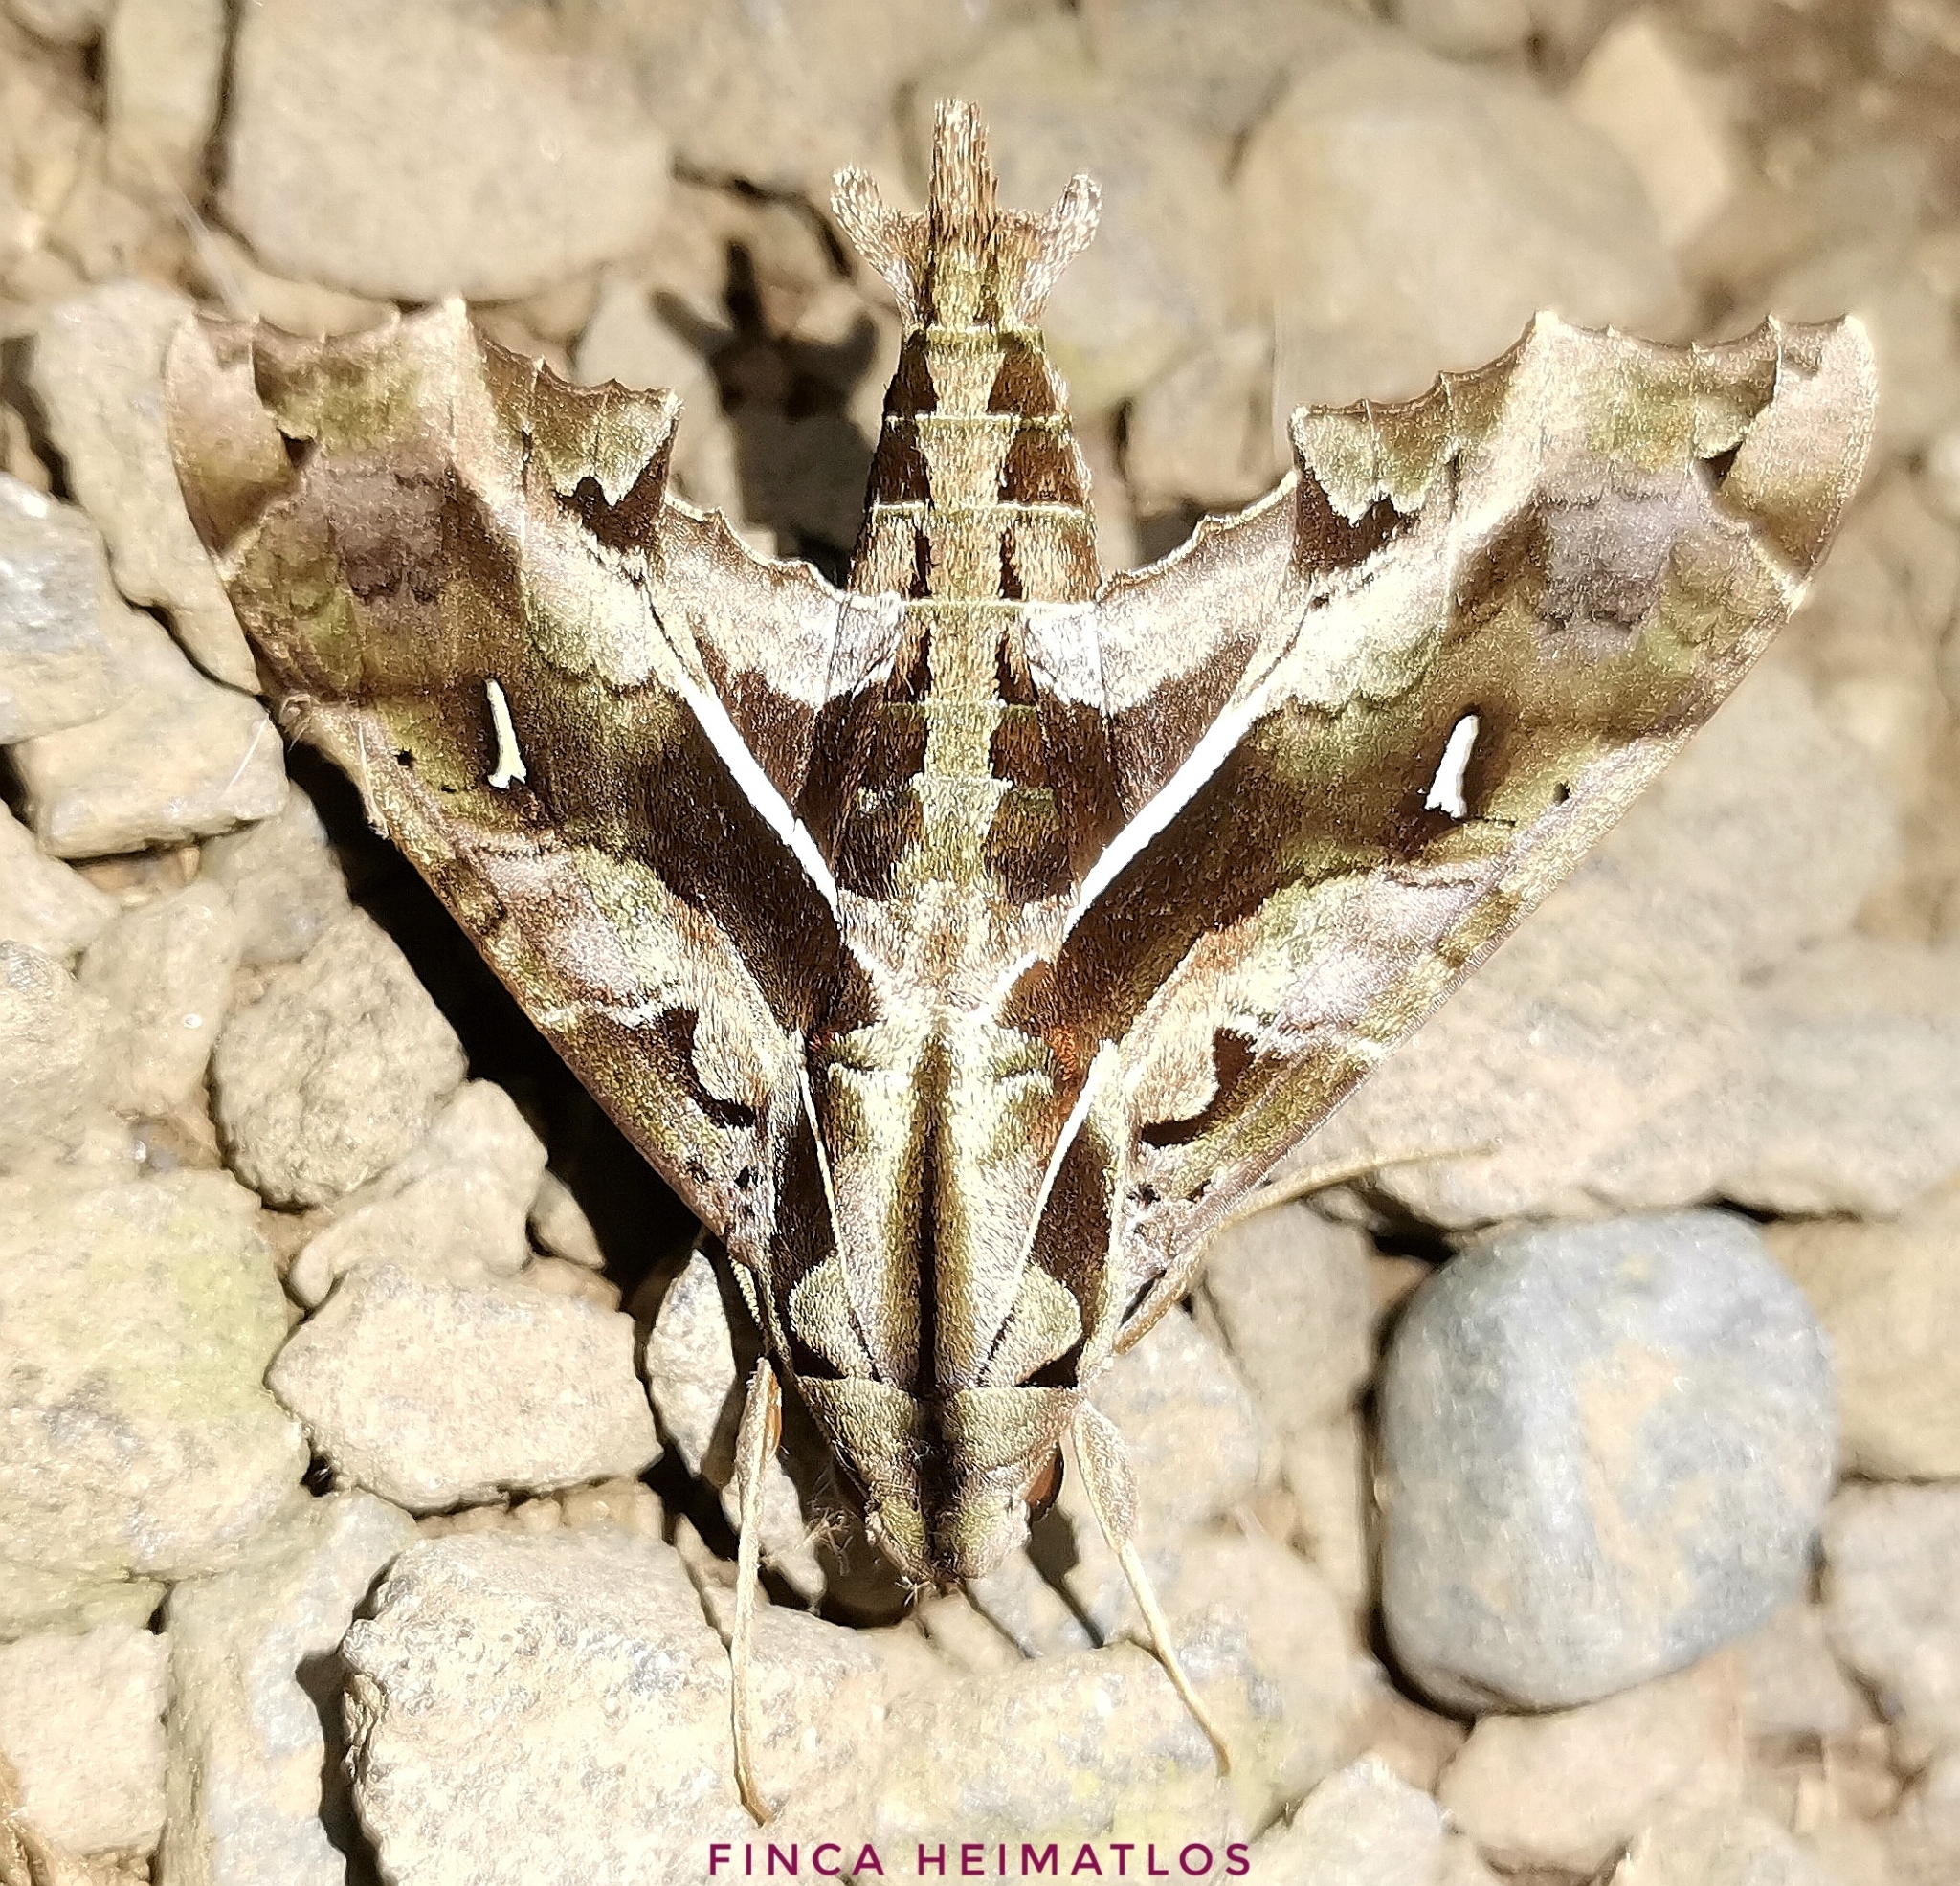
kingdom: Animalia
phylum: Arthropoda
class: Insecta
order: Lepidoptera
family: Sphingidae
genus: Hemeroplanes
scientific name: Hemeroplanes triptolemus
